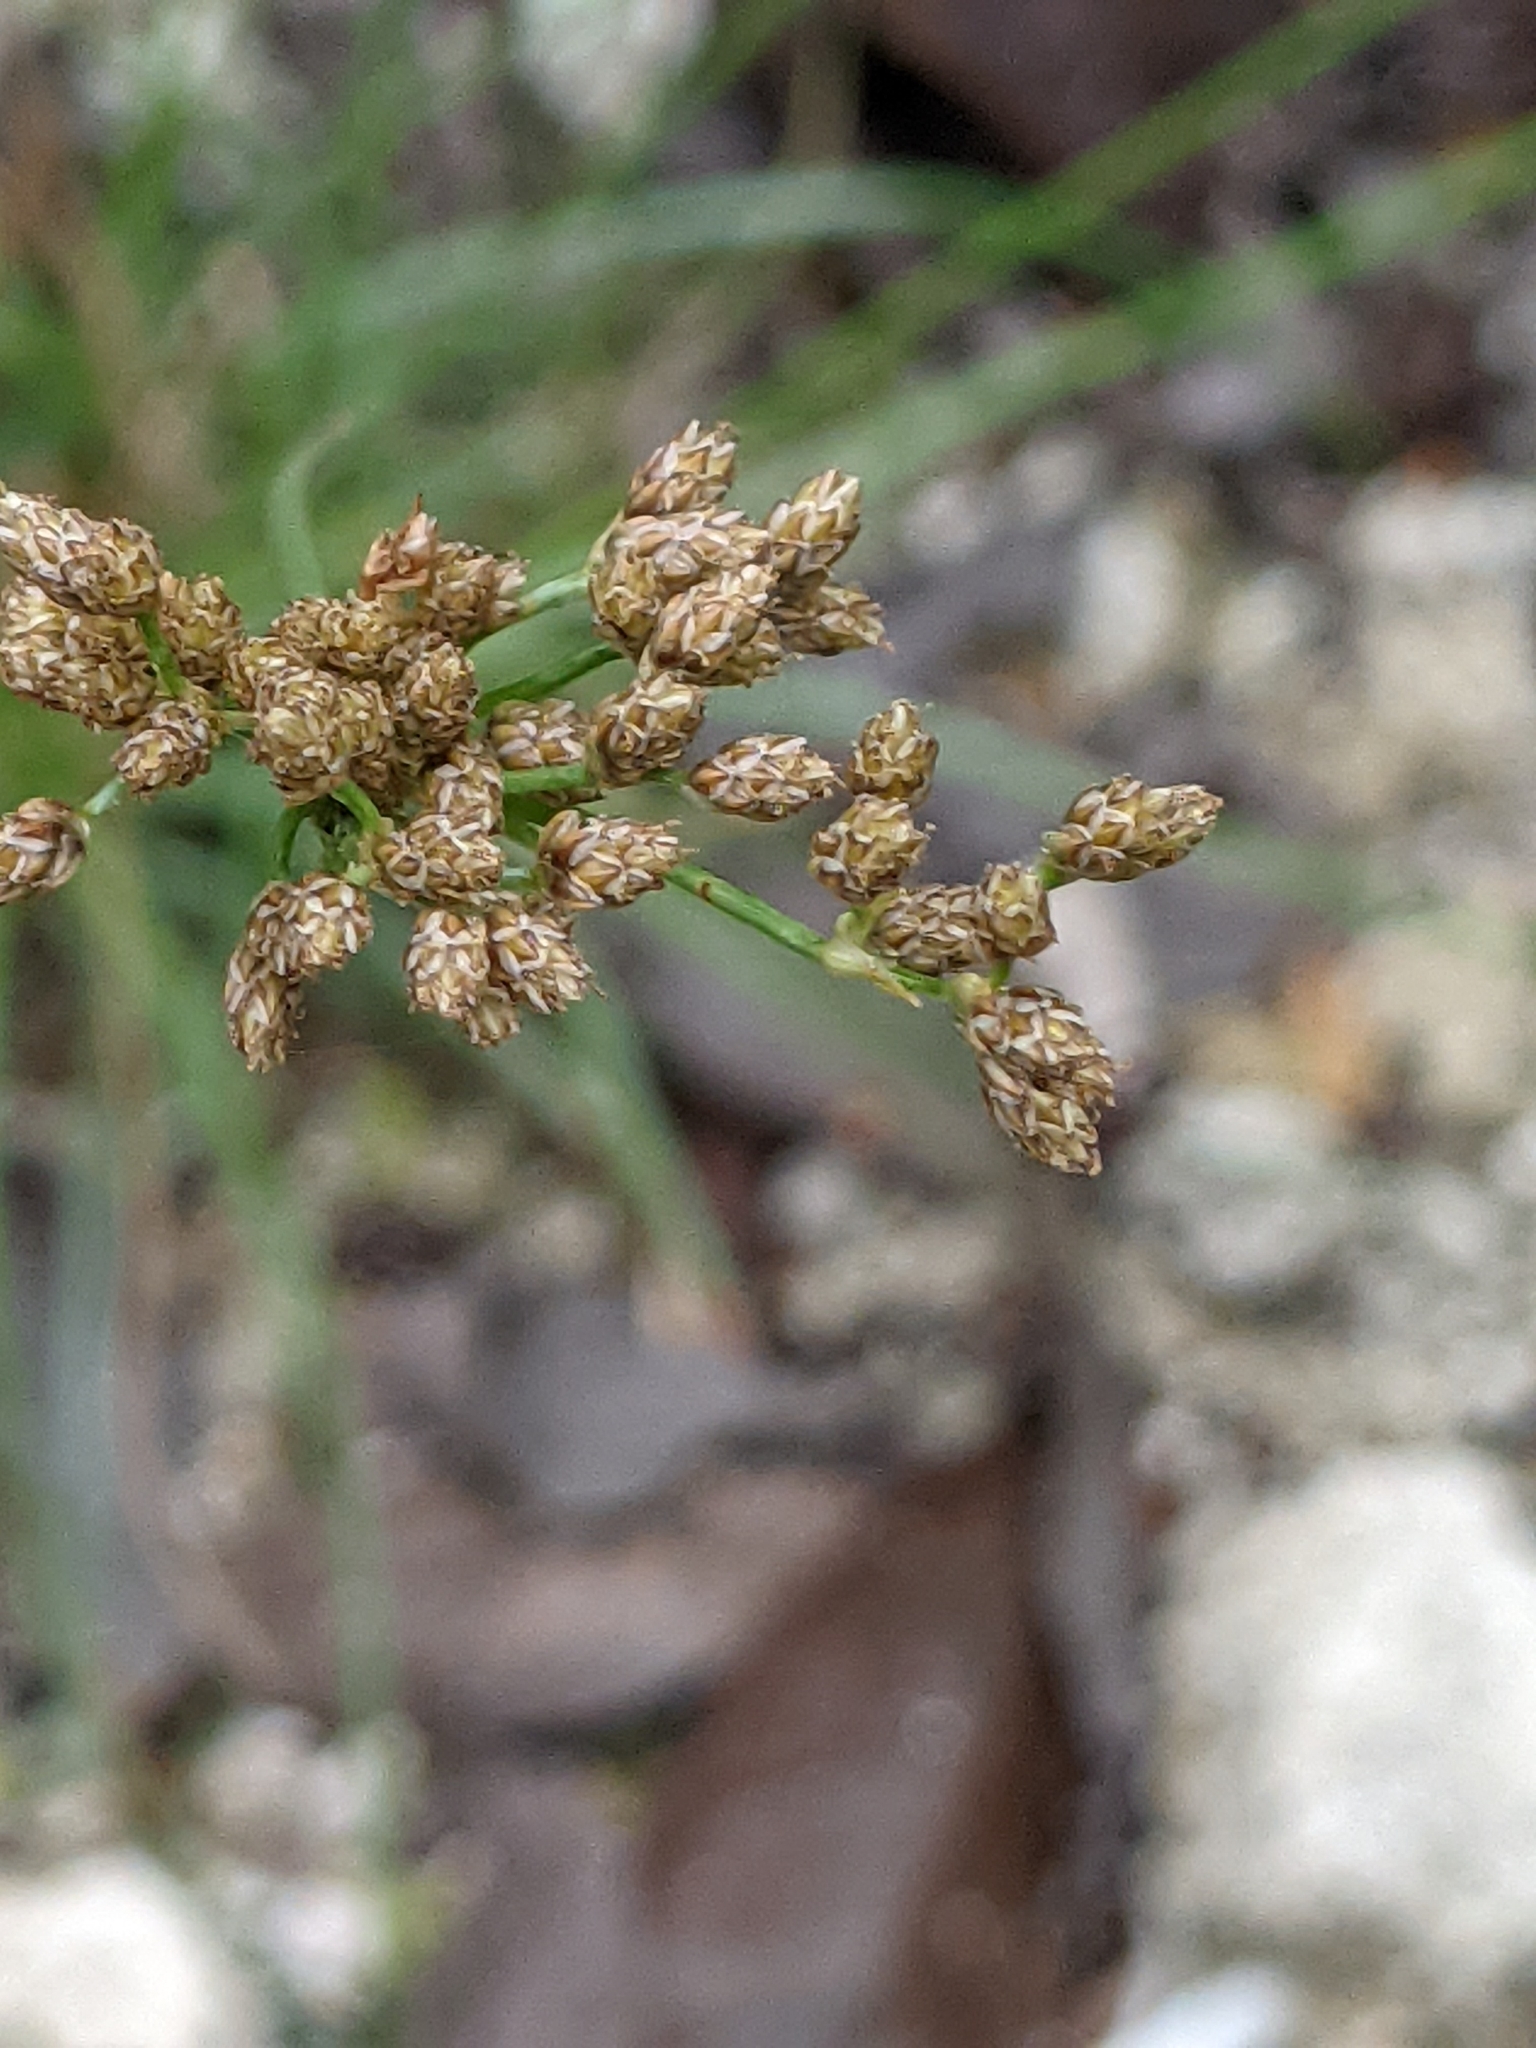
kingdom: Plantae
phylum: Tracheophyta
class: Liliopsida
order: Poales
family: Cyperaceae
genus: Fimbristylis
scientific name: Fimbristylis cymosa
